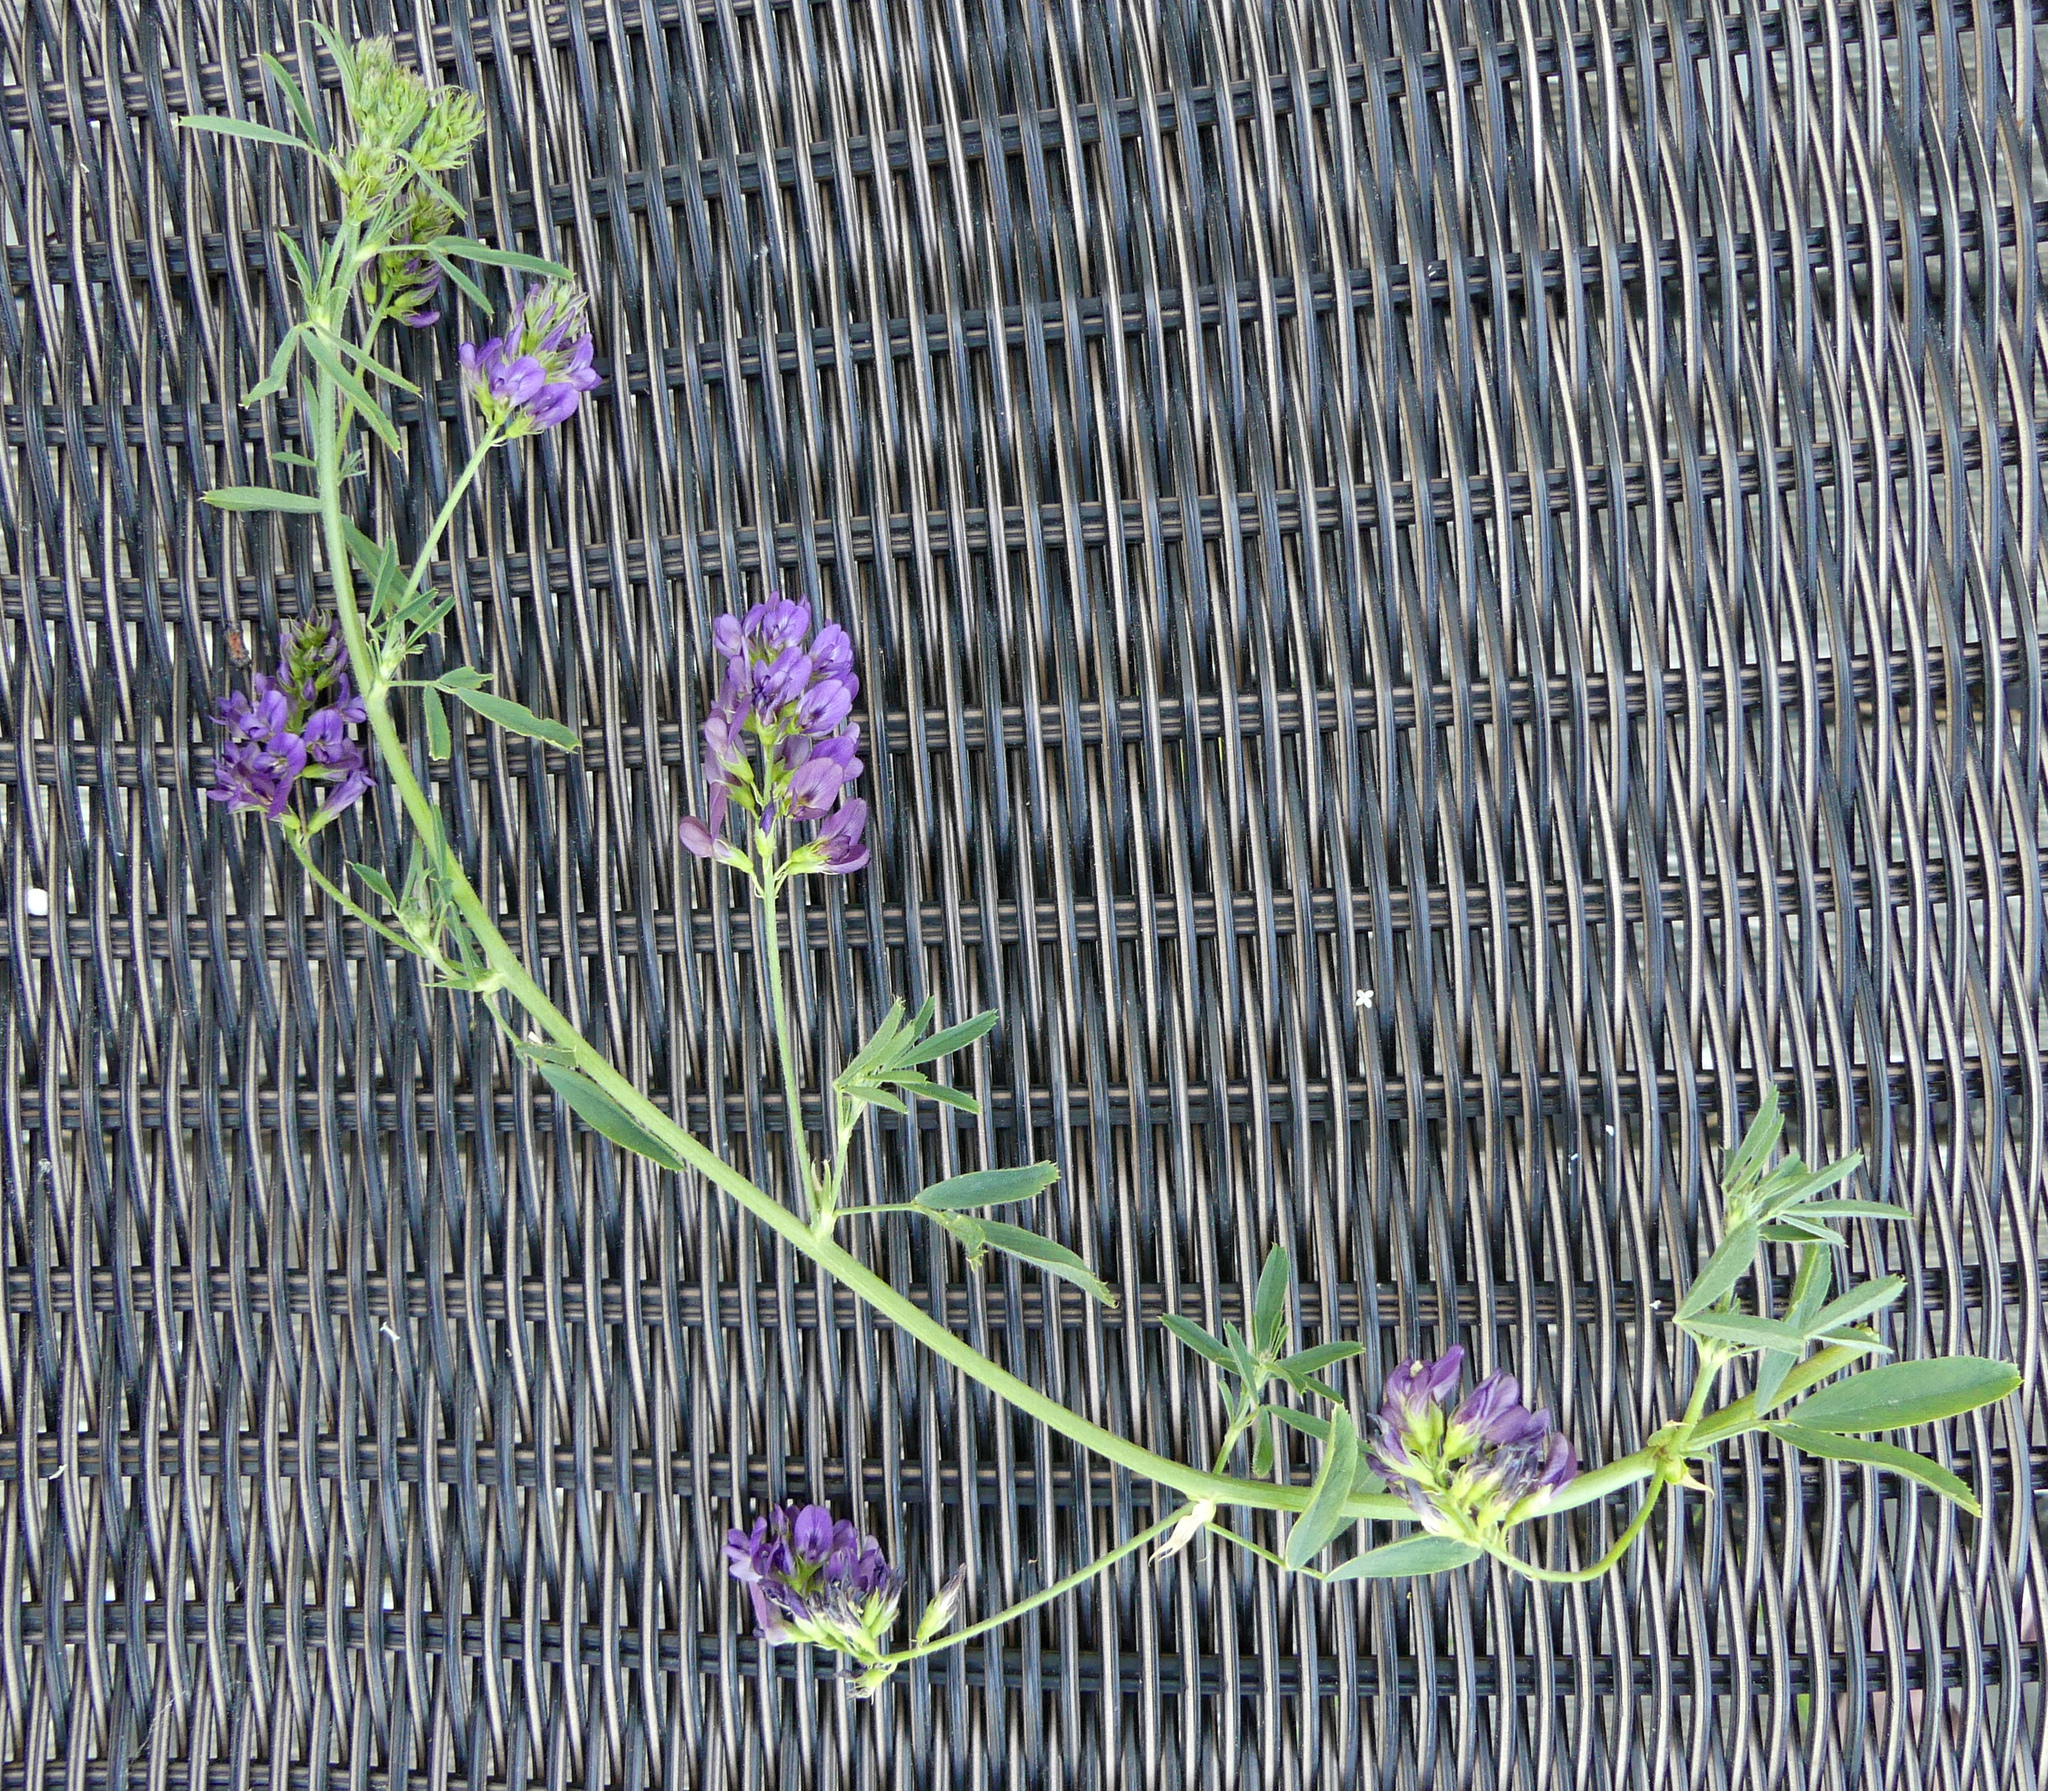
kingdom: Plantae
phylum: Tracheophyta
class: Magnoliopsida
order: Fabales
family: Fabaceae
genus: Medicago
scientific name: Medicago sativa
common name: Alfalfa
